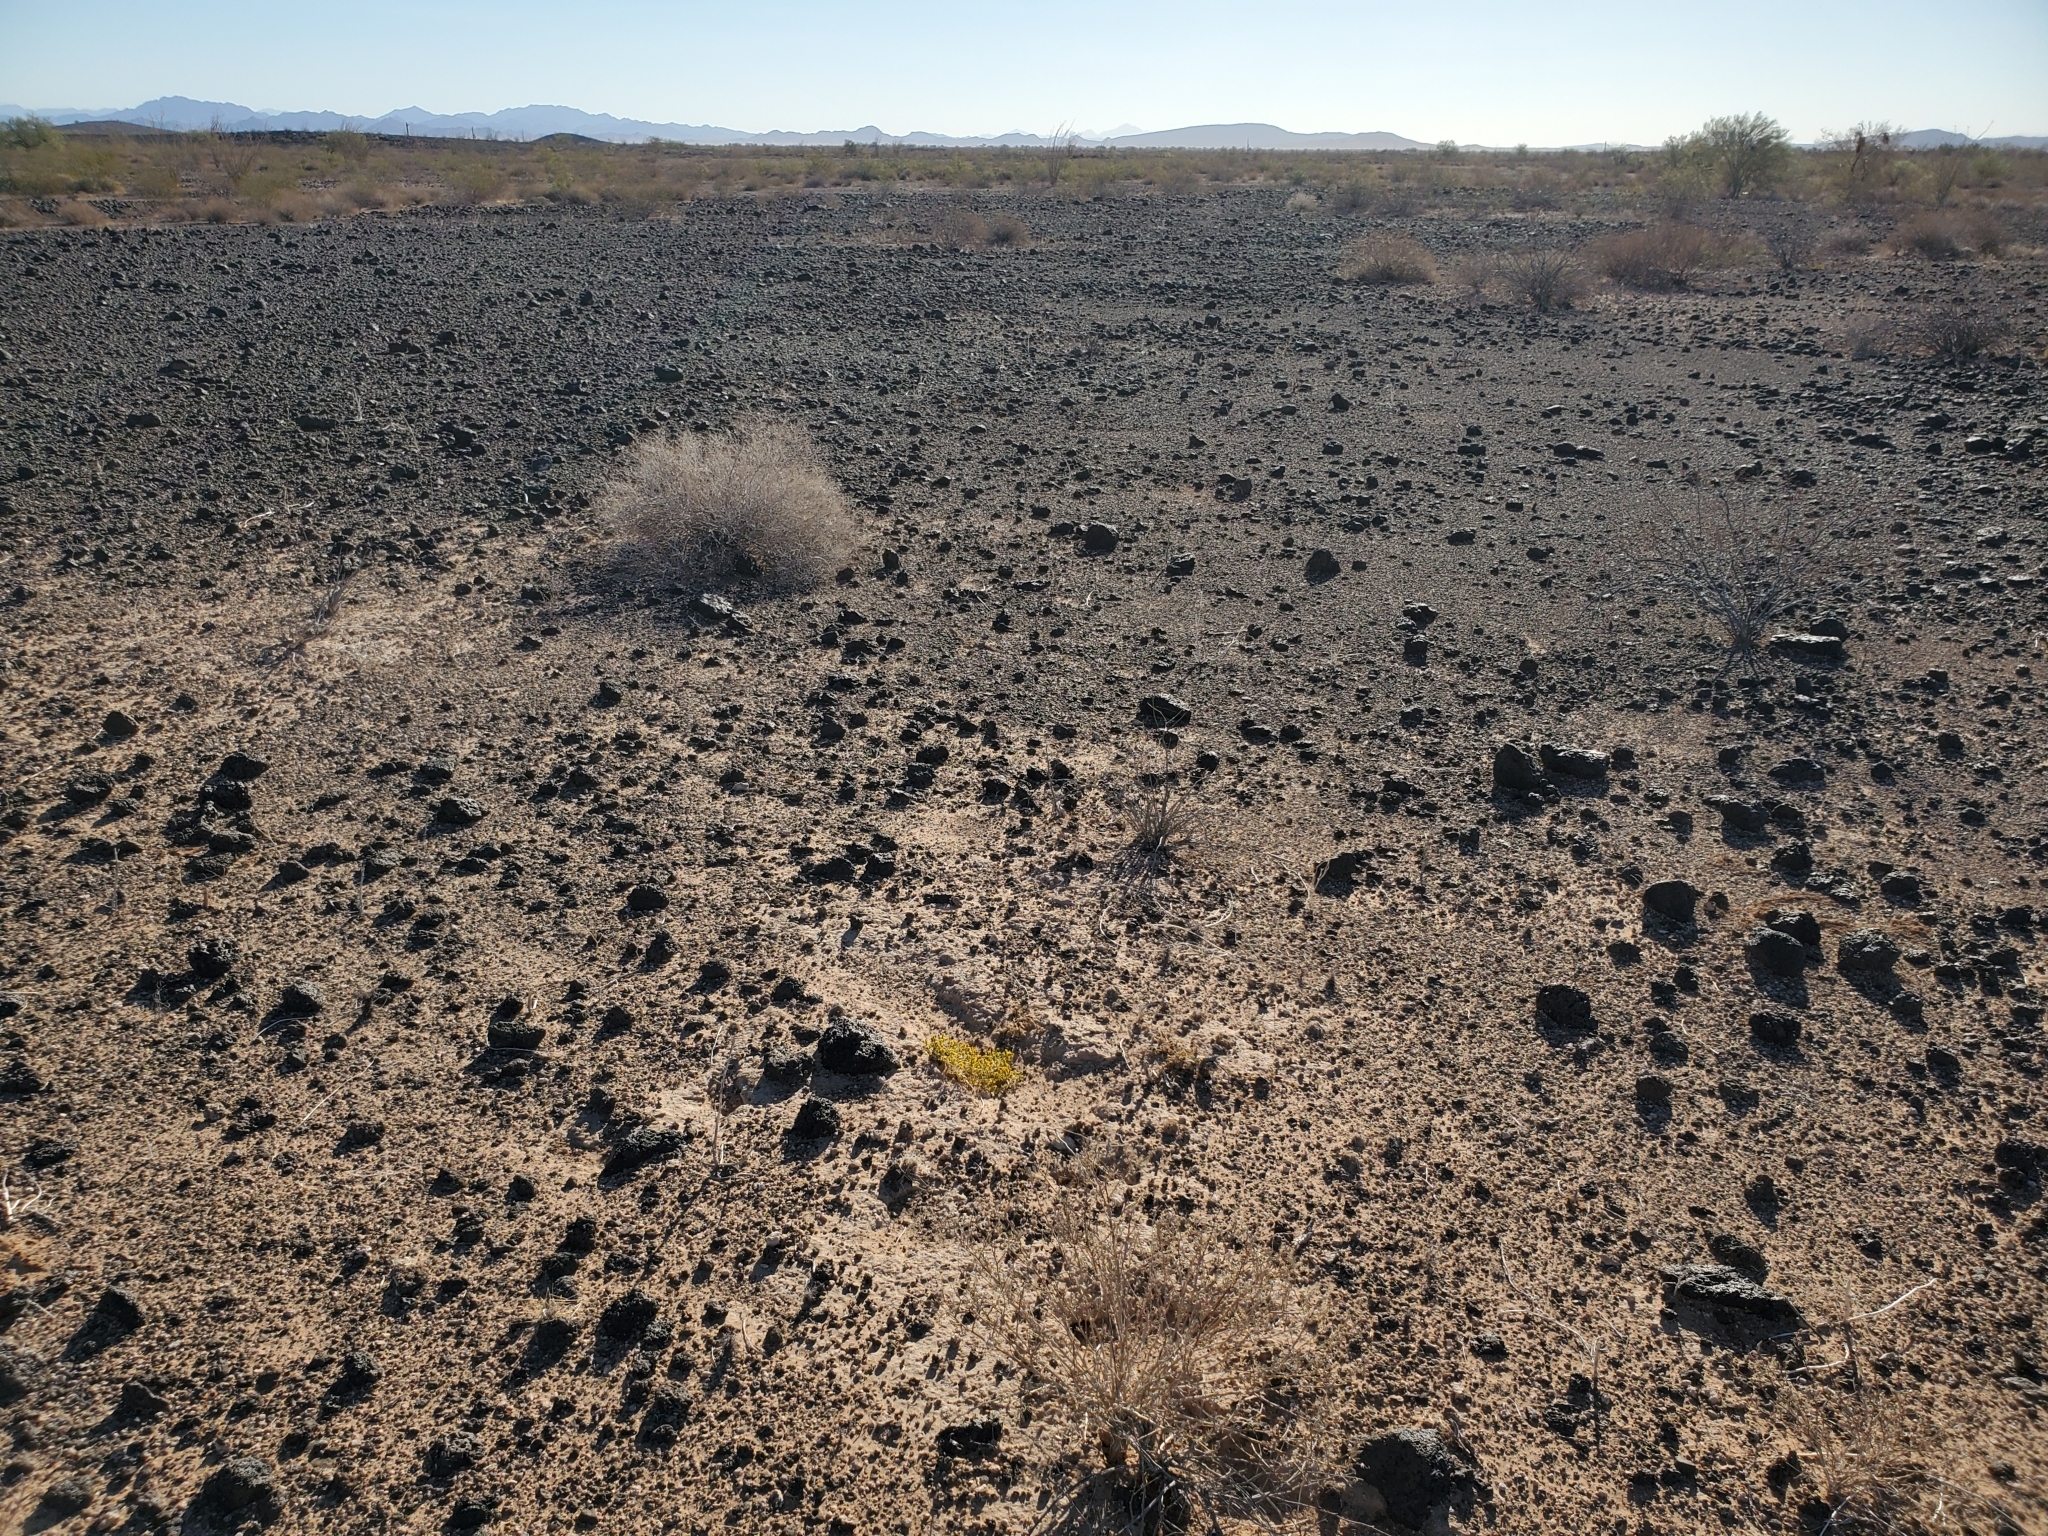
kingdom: Plantae
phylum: Tracheophyta
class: Magnoliopsida
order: Asterales
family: Asteraceae
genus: Pectis
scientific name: Pectis papposa
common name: Many-bristle chinchweed
